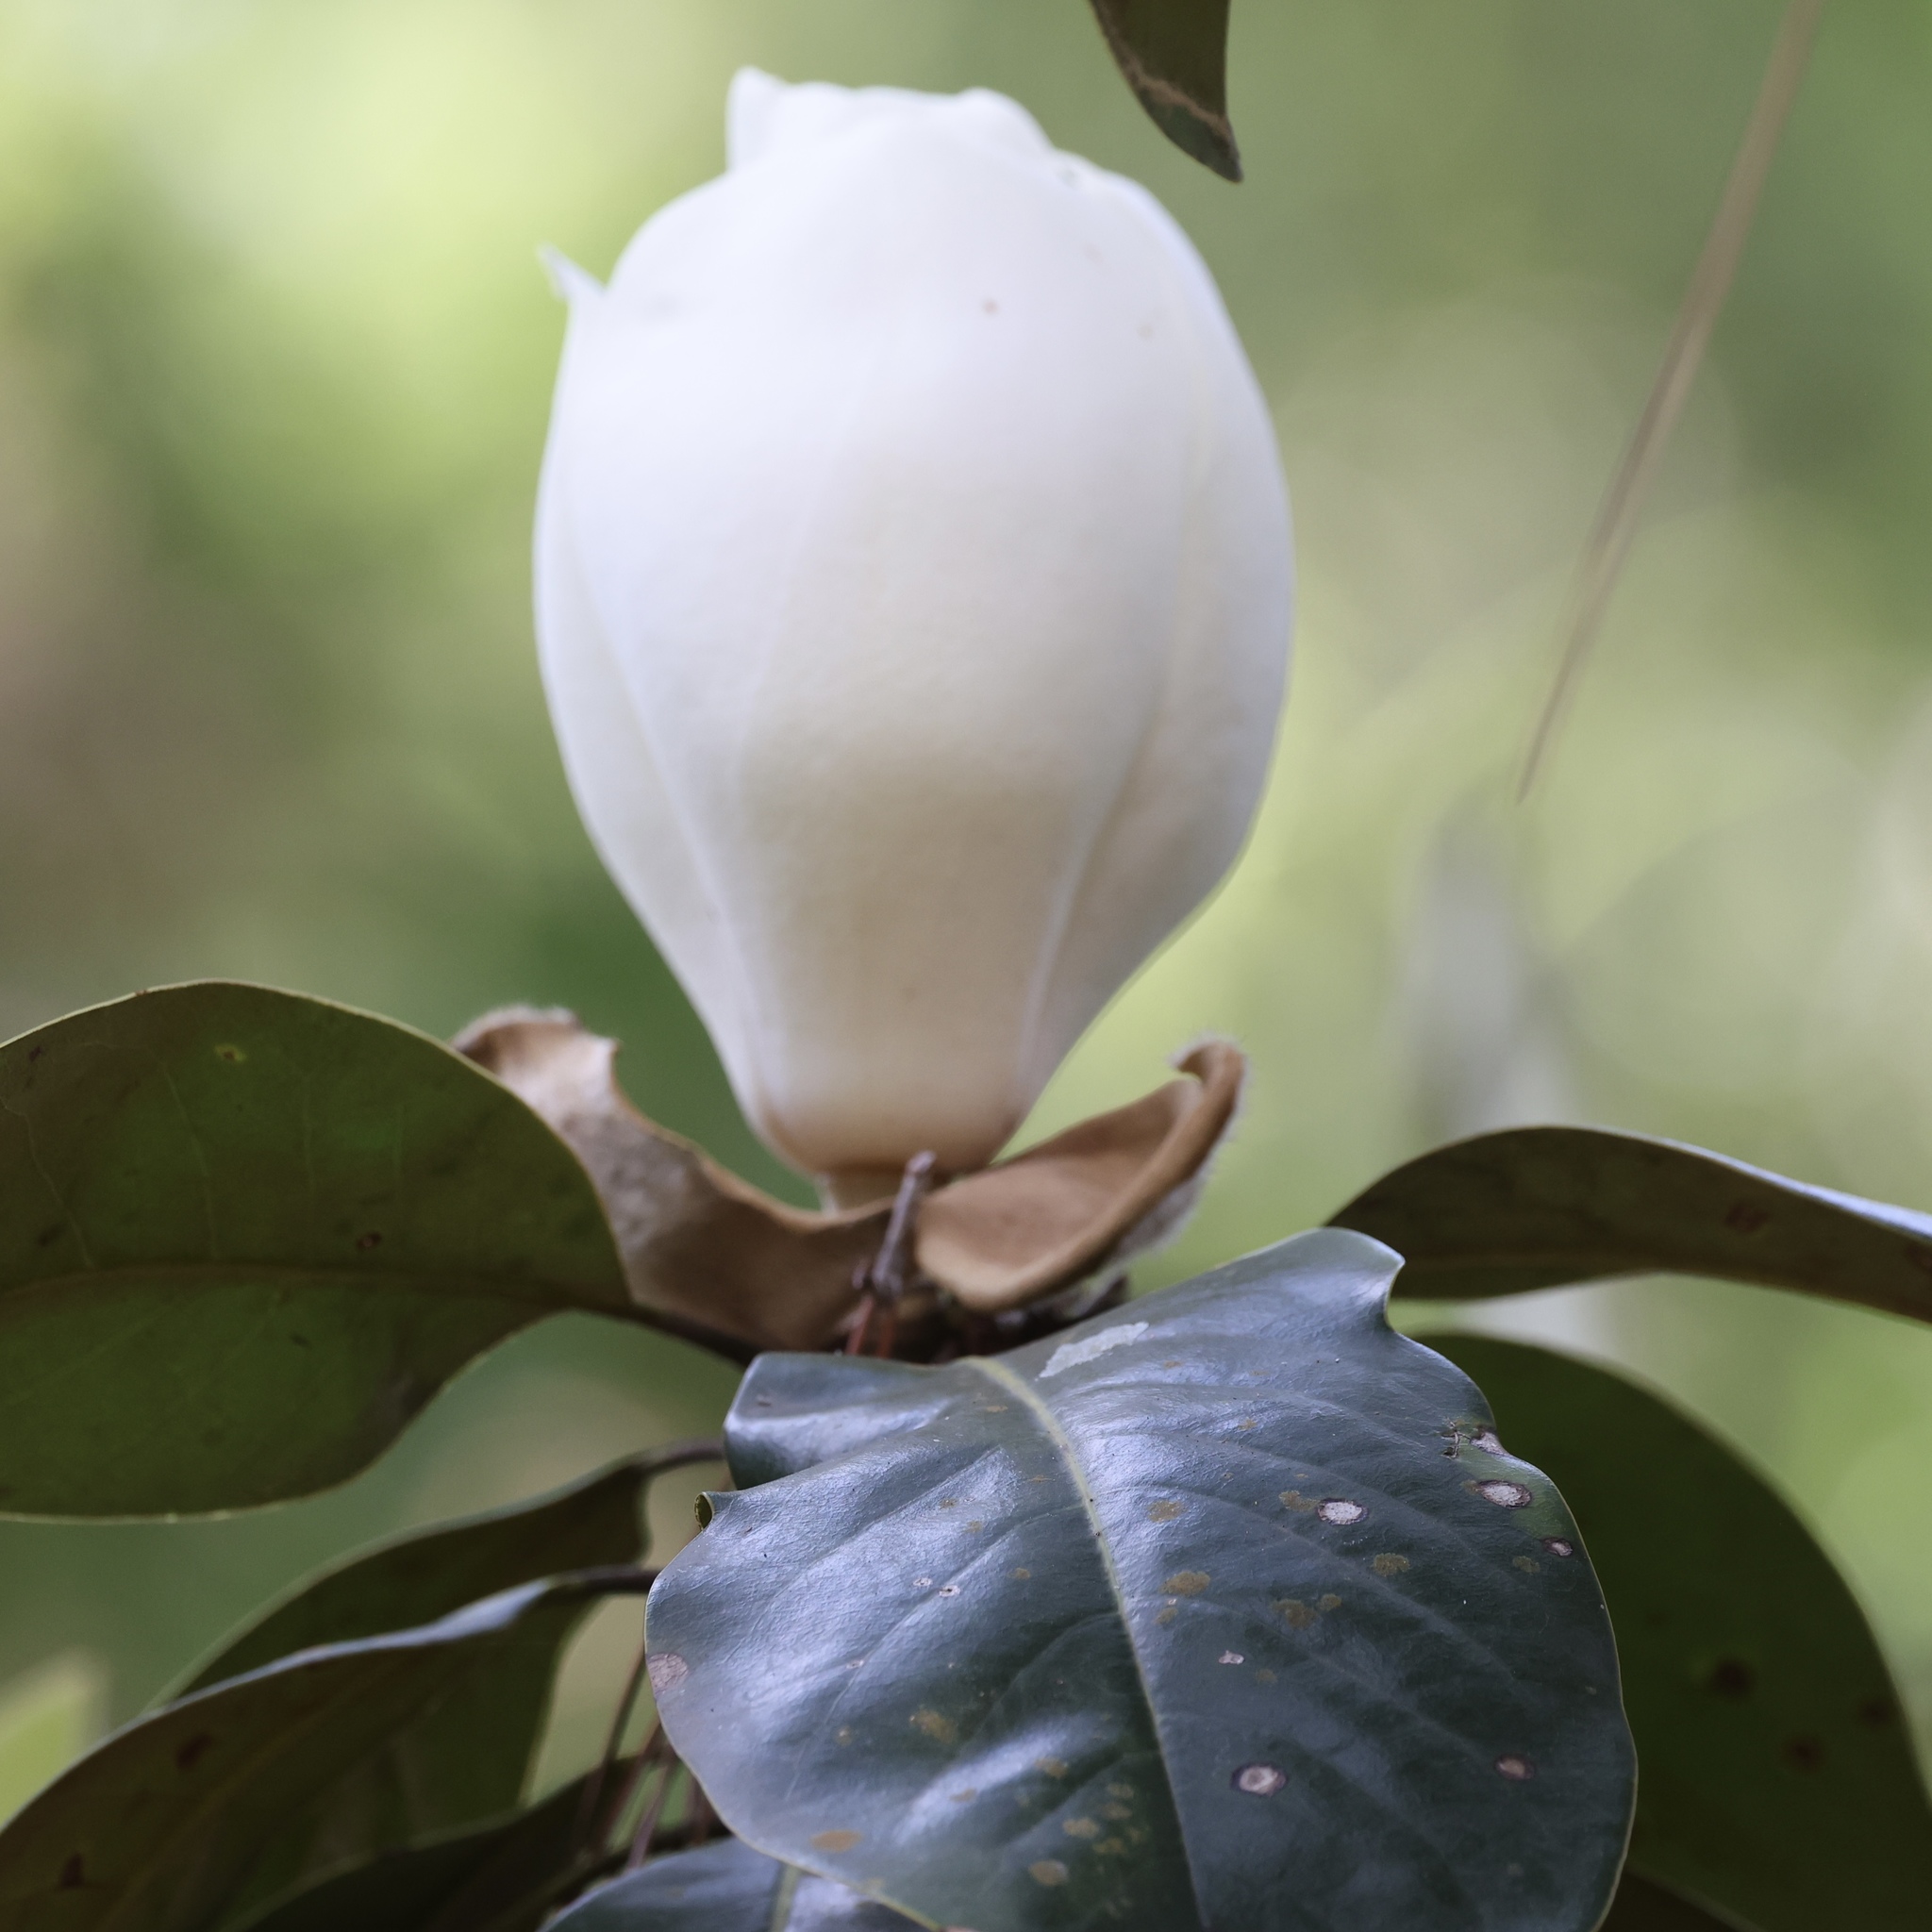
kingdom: Plantae
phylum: Tracheophyta
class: Magnoliopsida
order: Magnoliales
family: Magnoliaceae
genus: Magnolia
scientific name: Magnolia grandiflora
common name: Southern magnolia
